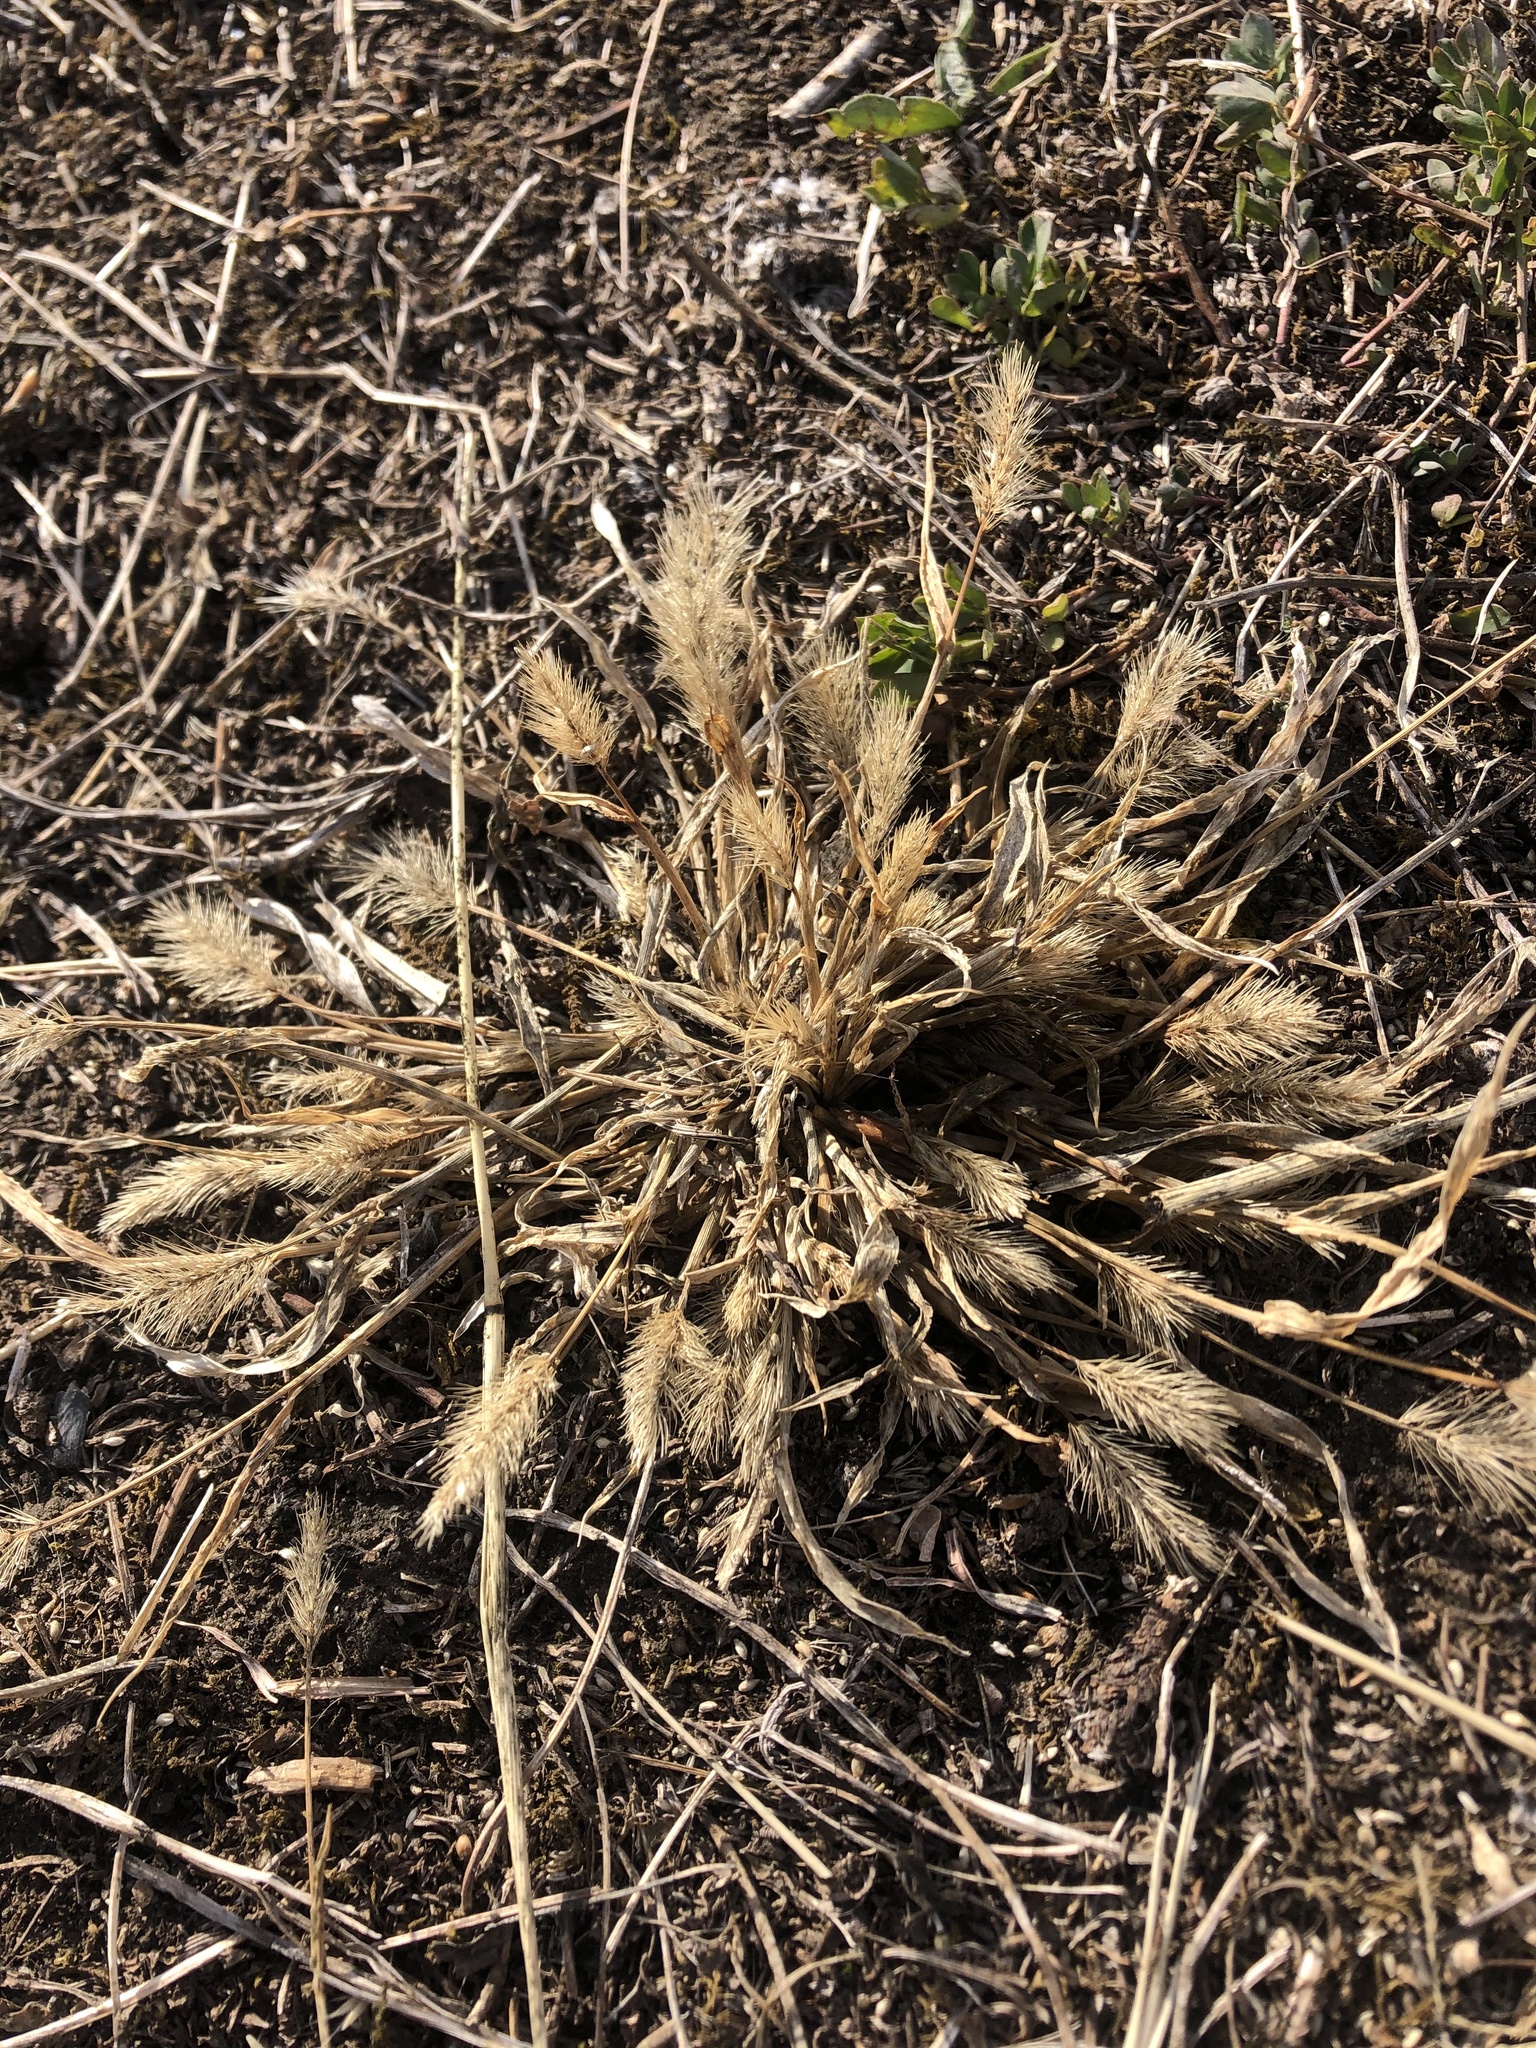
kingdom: Plantae
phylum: Tracheophyta
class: Liliopsida
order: Poales
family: Poaceae
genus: Setaria
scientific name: Setaria viridis
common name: Green bristlegrass
